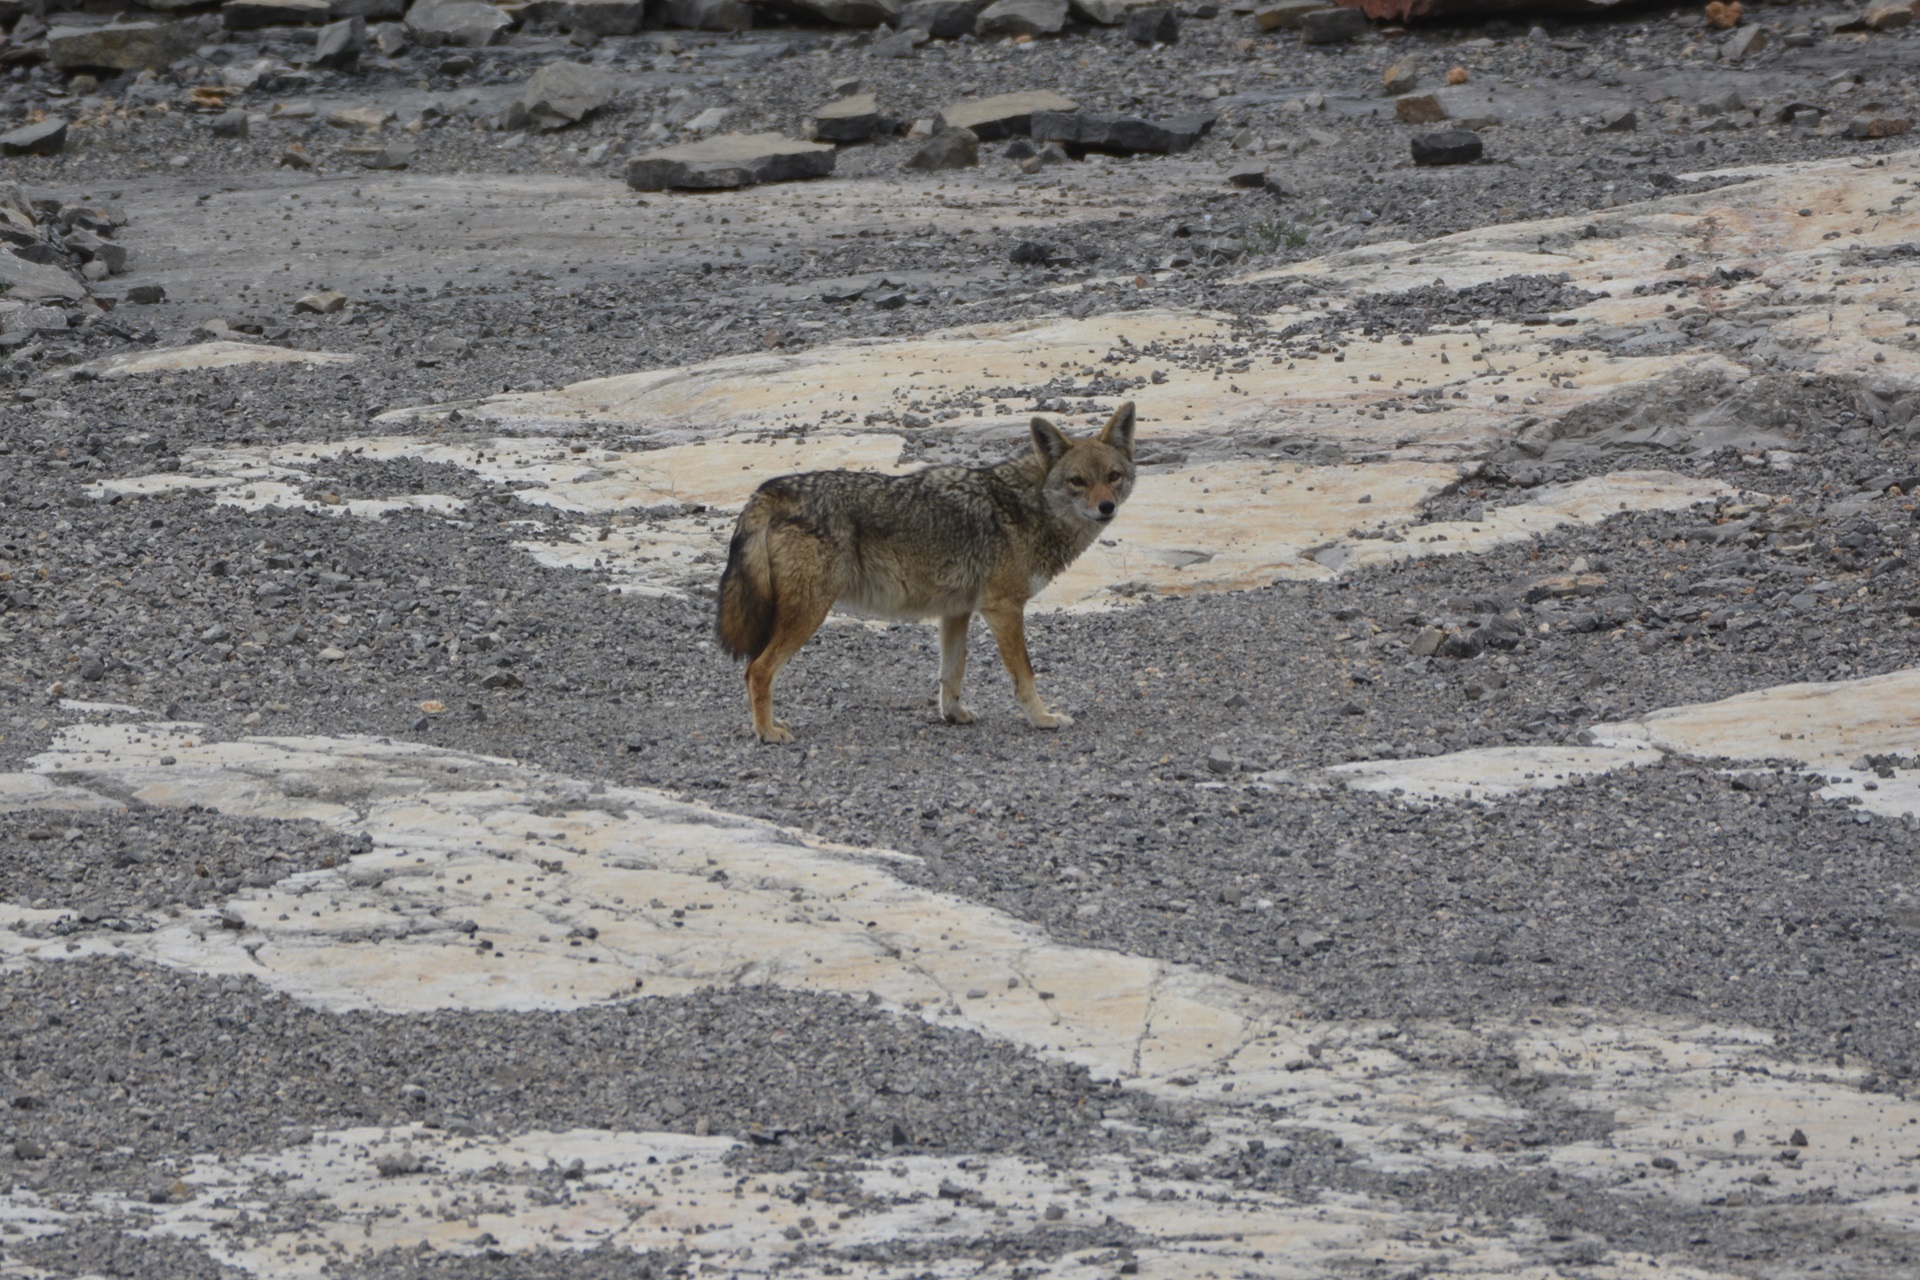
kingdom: Animalia
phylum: Chordata
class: Mammalia
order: Carnivora
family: Canidae
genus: Canis
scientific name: Canis lupaster
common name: African golden wolf
